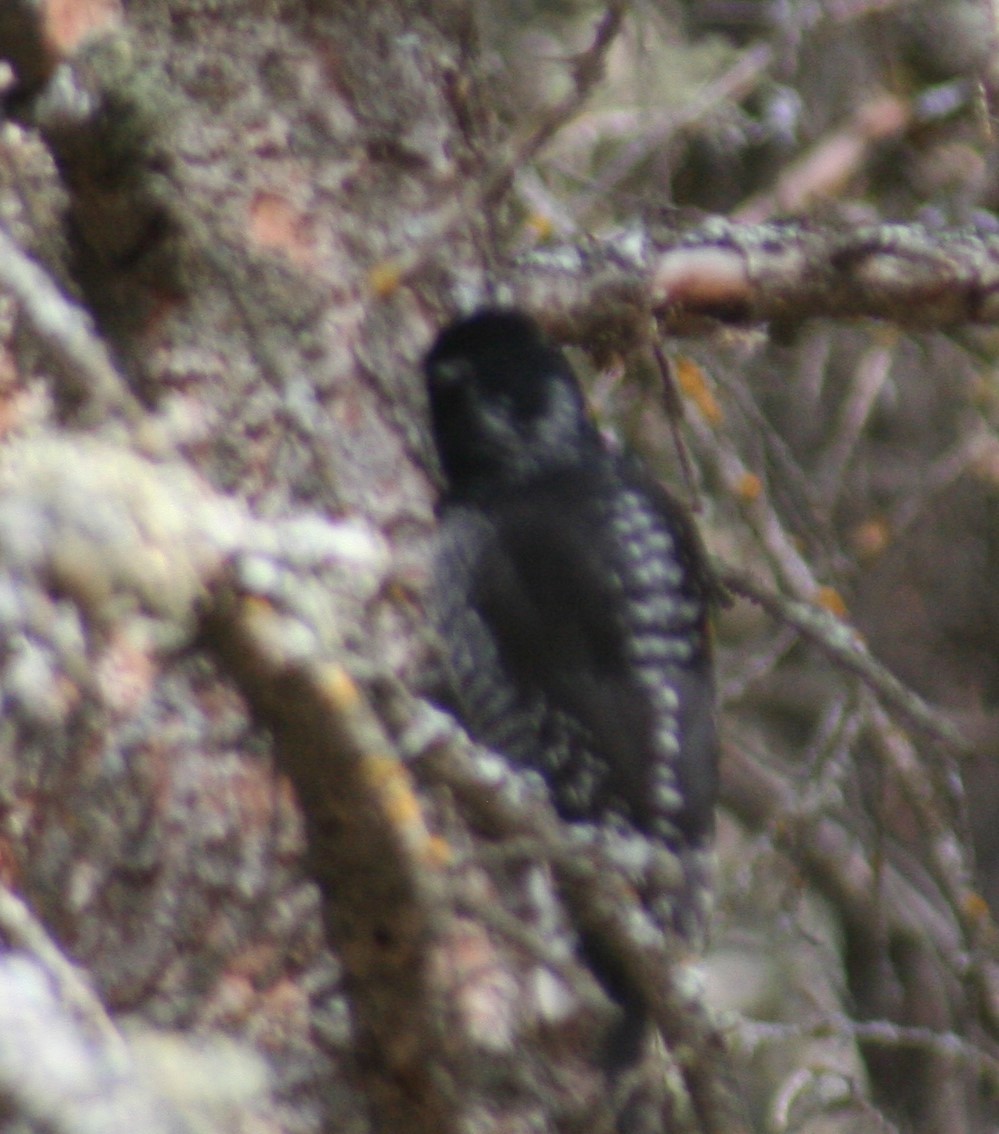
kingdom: Animalia
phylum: Chordata
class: Aves
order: Piciformes
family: Picidae
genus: Picoides
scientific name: Picoides dorsalis
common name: American three-toed woodpecker
